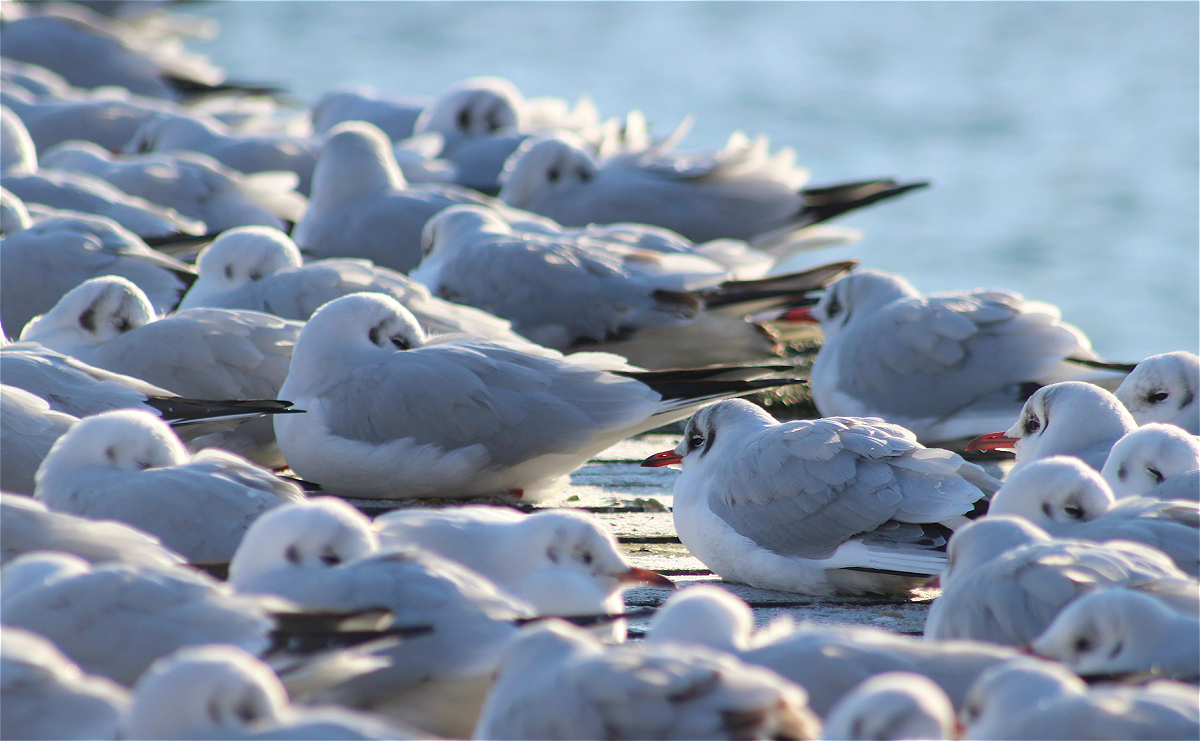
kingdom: Animalia
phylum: Chordata
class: Aves
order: Charadriiformes
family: Laridae
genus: Chroicocephalus
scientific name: Chroicocephalus ridibundus
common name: Black-headed gull
